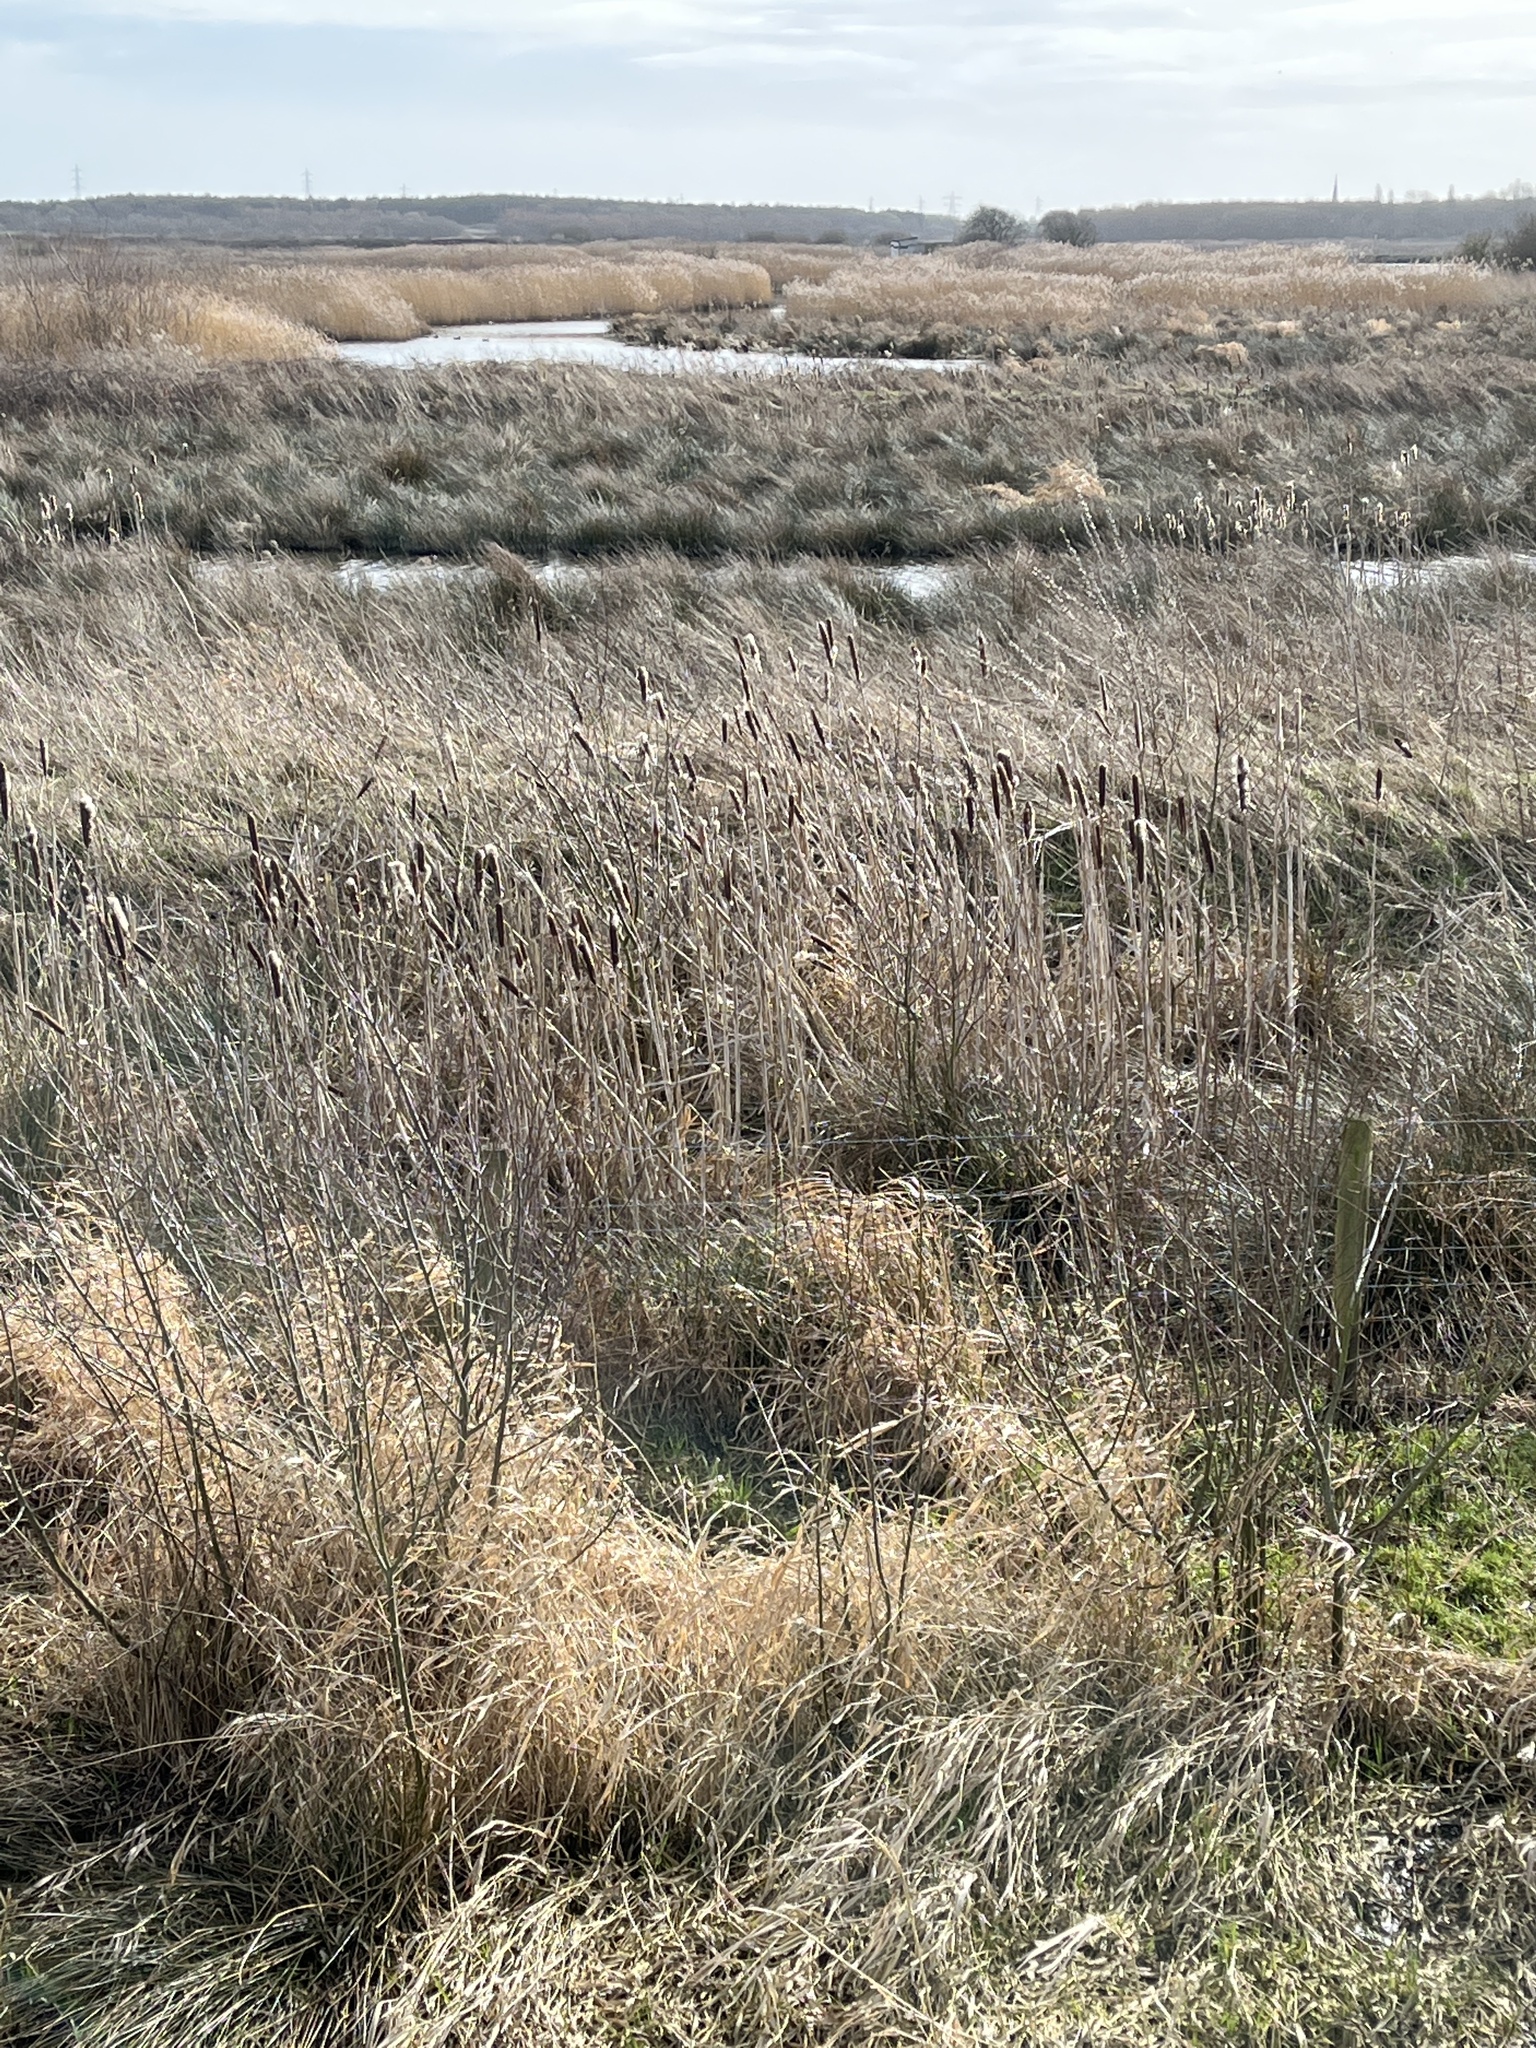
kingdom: Plantae
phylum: Tracheophyta
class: Liliopsida
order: Poales
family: Typhaceae
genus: Typha
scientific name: Typha latifolia
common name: Broadleaf cattail
